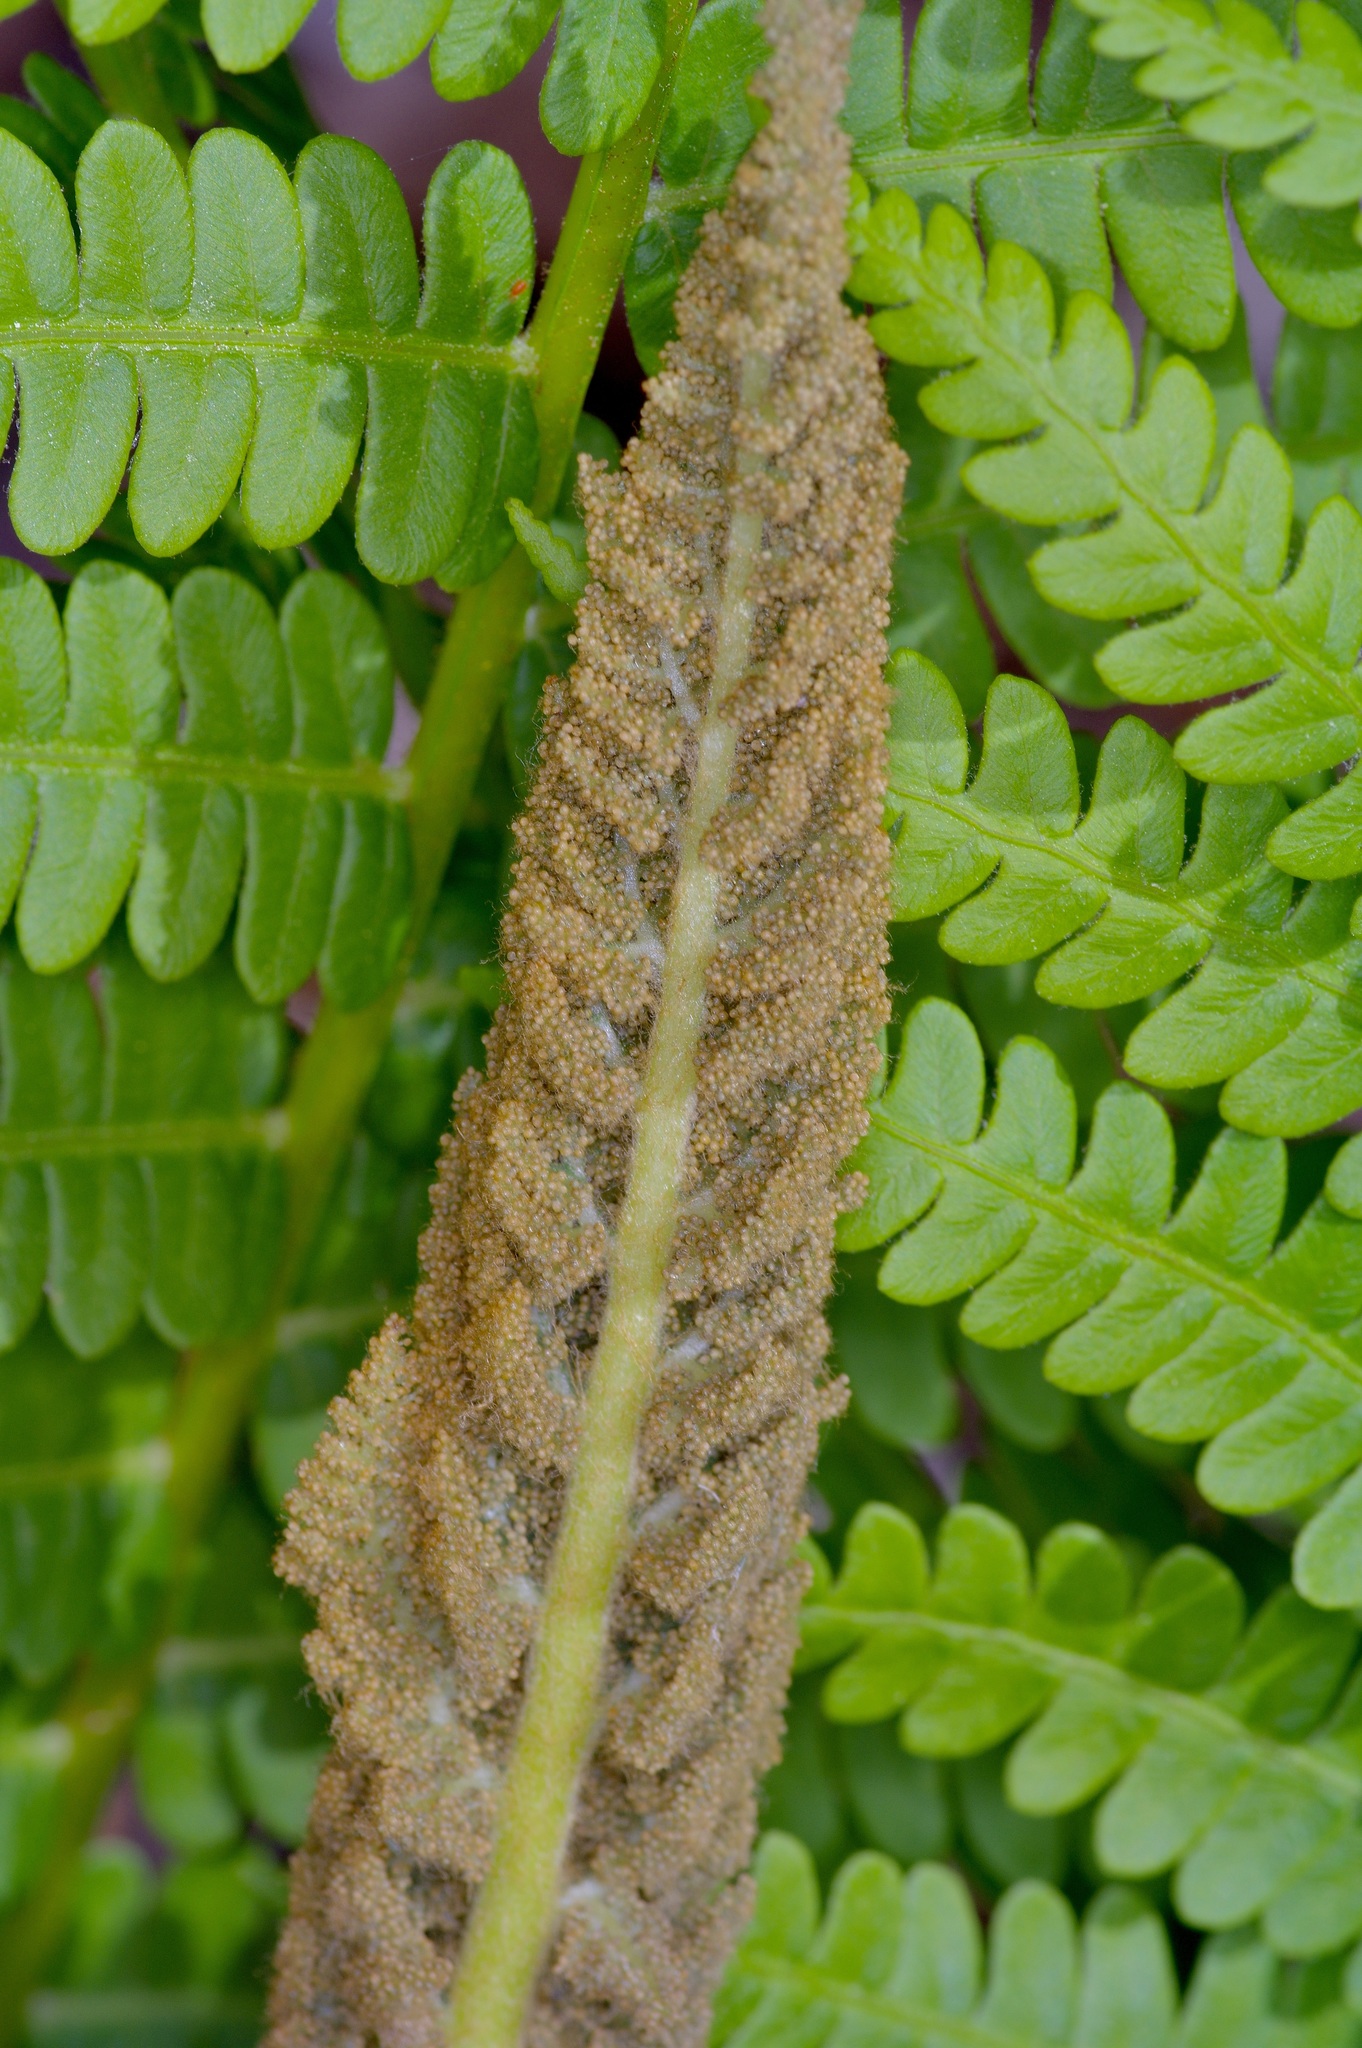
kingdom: Plantae
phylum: Tracheophyta
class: Polypodiopsida
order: Osmundales
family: Osmundaceae
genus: Osmundastrum
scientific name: Osmundastrum cinnamomeum
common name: Cinnamon fern
